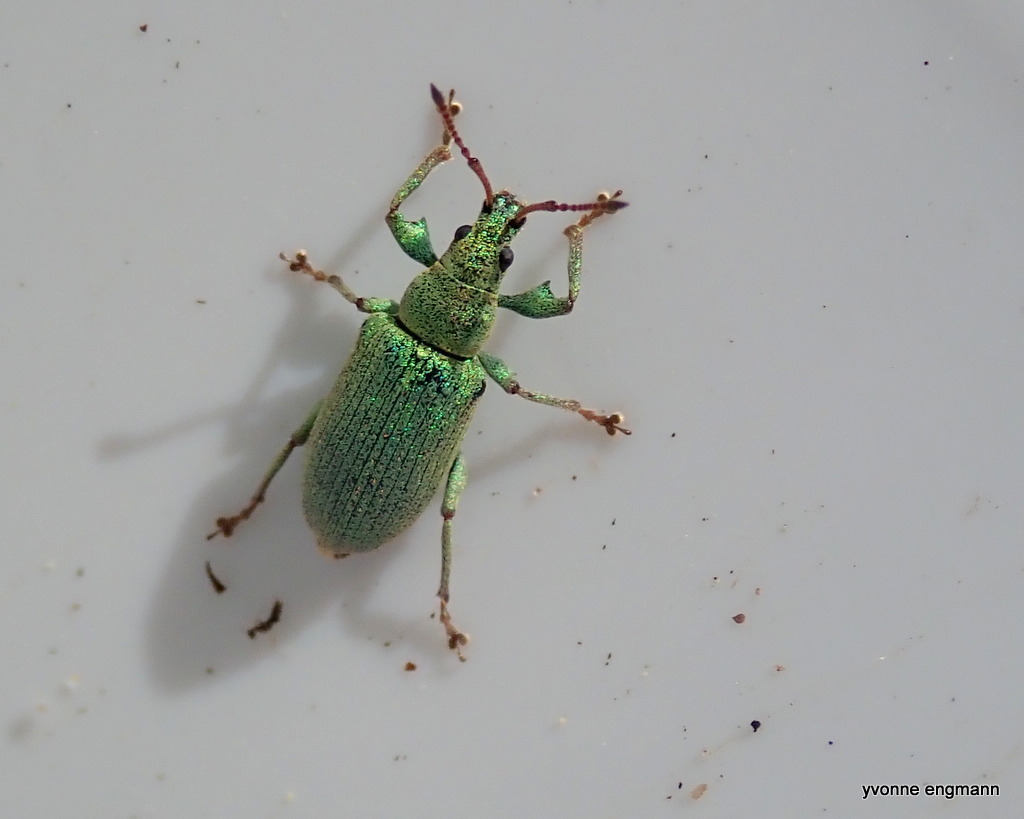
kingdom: Animalia
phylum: Arthropoda
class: Insecta
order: Coleoptera
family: Curculionidae
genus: Phyllobius
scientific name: Phyllobius maculicornis
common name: Green leaf weevil
